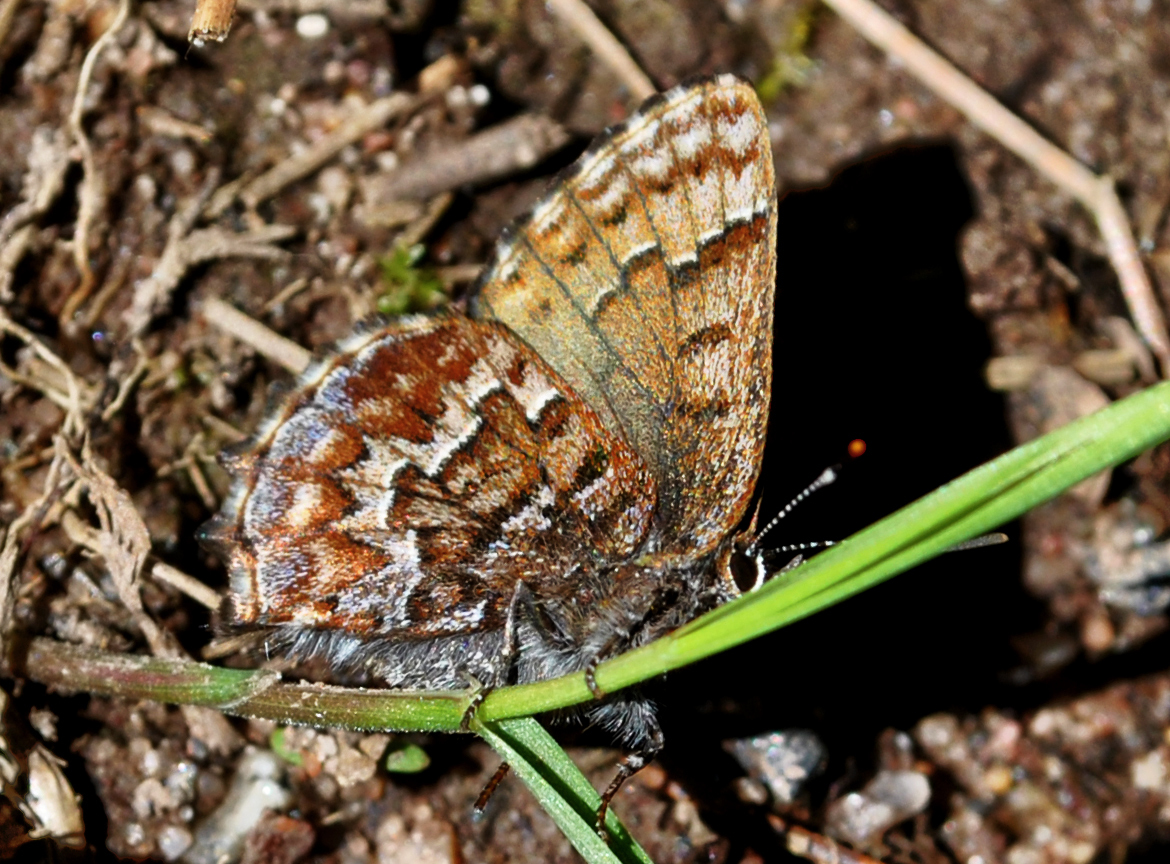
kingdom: Animalia
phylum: Arthropoda
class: Insecta
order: Lepidoptera
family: Lycaenidae
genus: Incisalia
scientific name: Incisalia niphon
